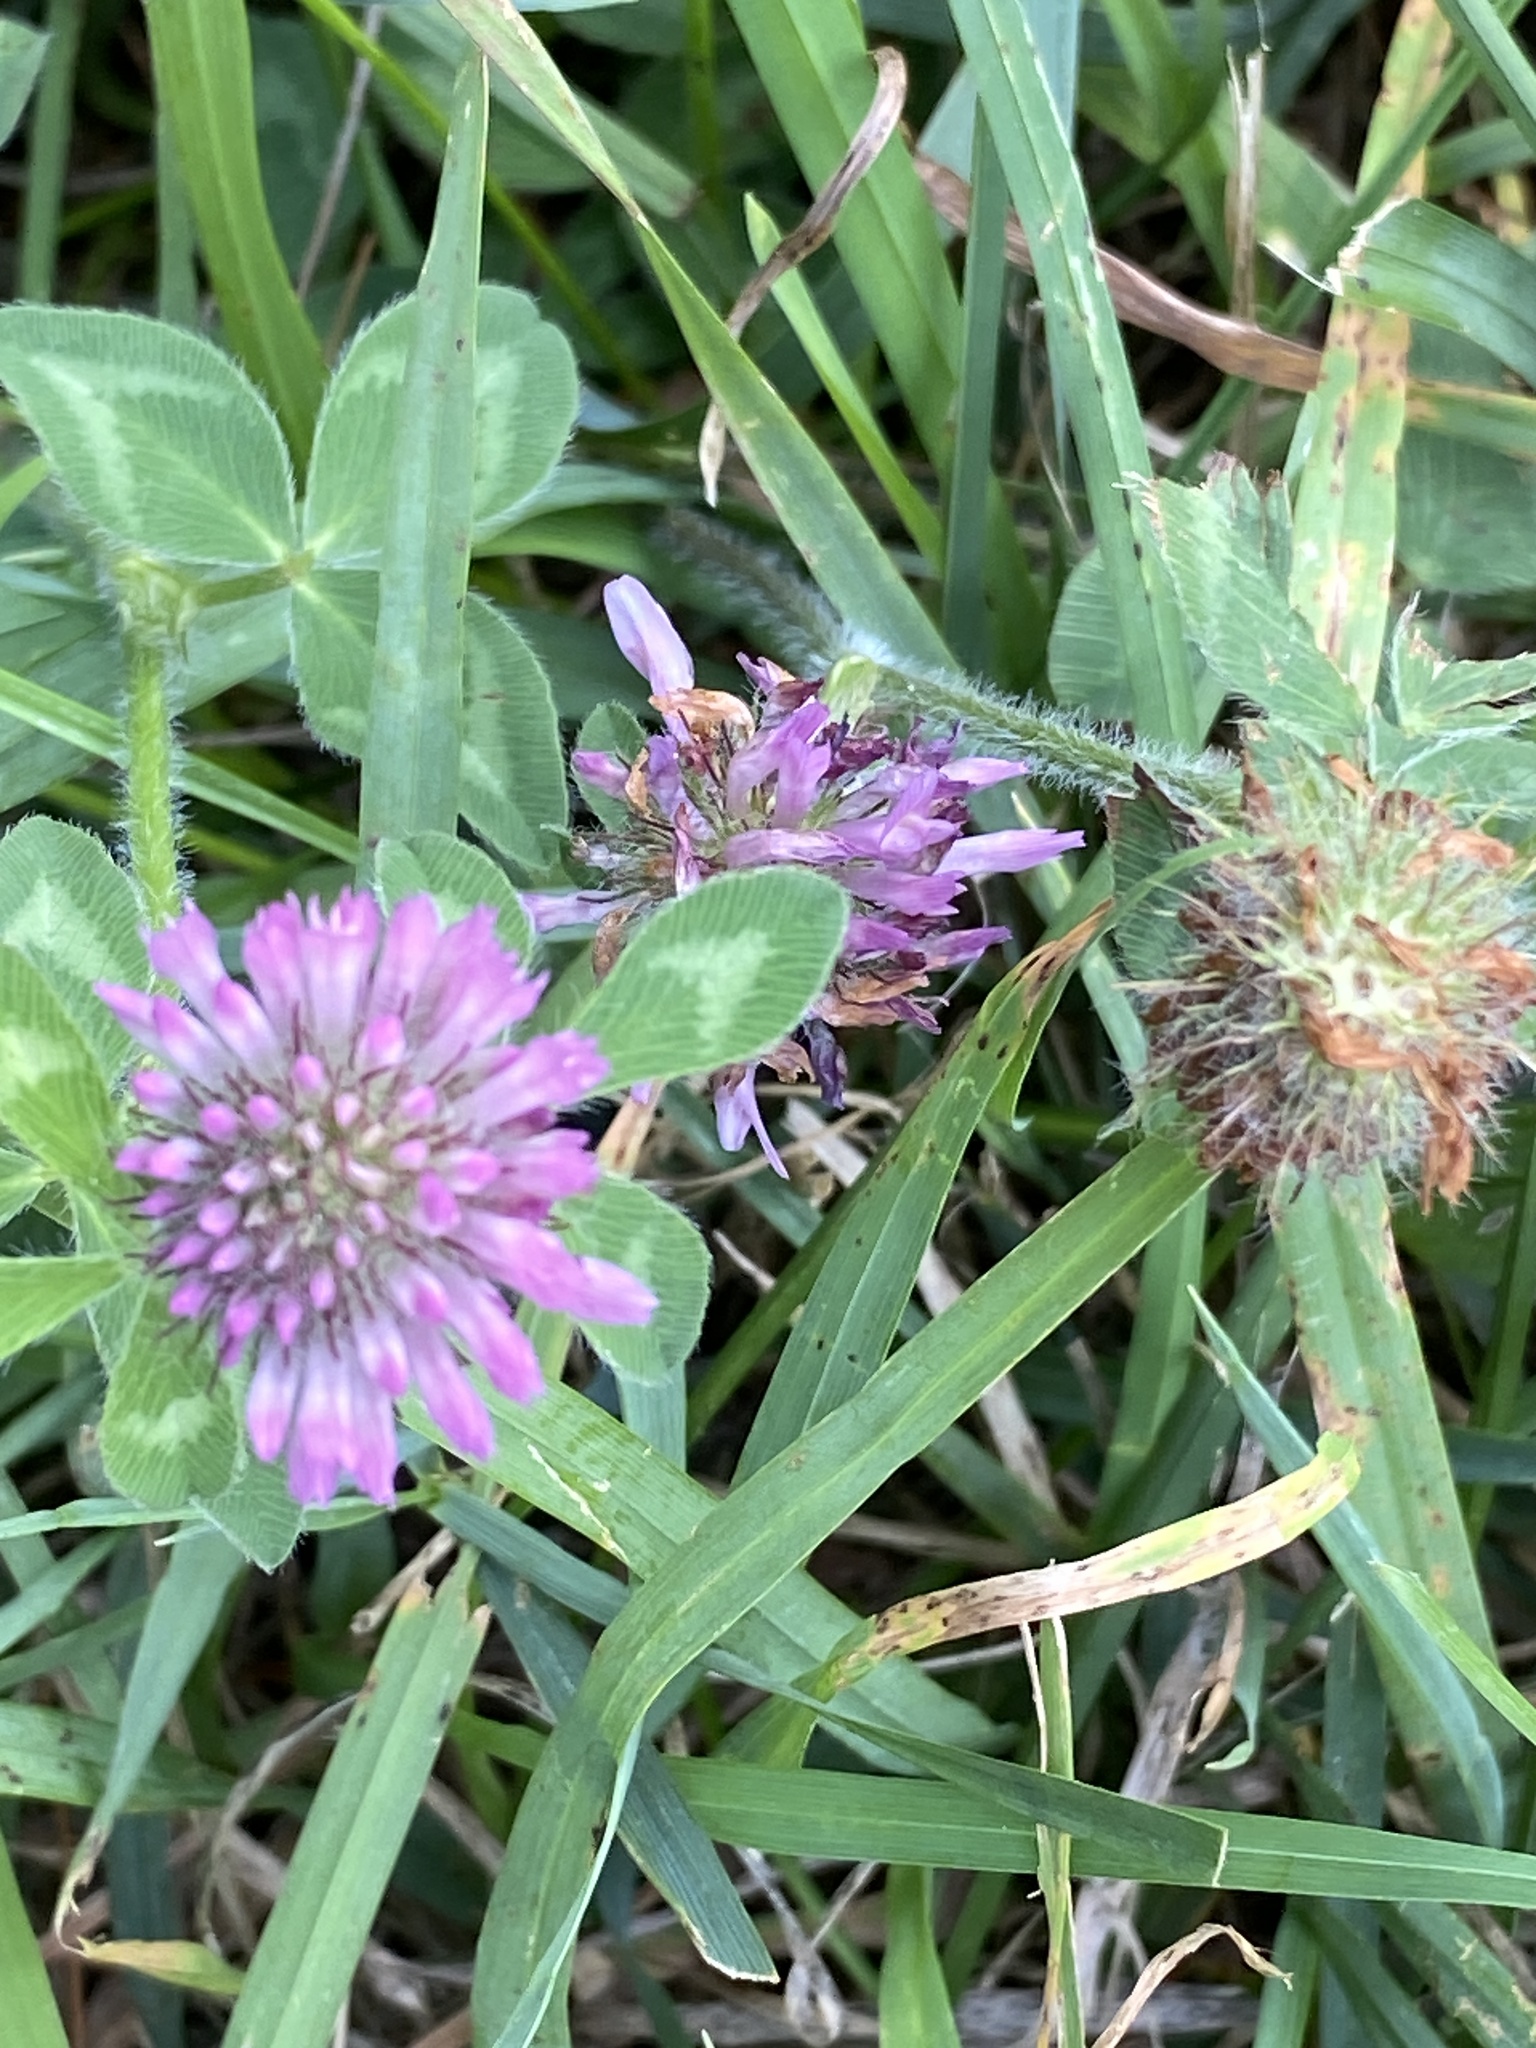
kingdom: Plantae
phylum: Tracheophyta
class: Magnoliopsida
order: Fabales
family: Fabaceae
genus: Trifolium
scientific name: Trifolium pratense
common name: Red clover
